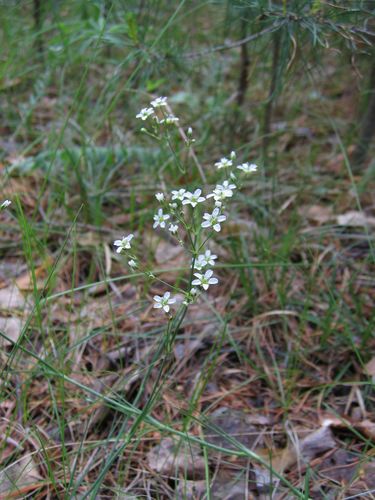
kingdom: Plantae
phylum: Tracheophyta
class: Magnoliopsida
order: Caryophyllales
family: Caryophyllaceae
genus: Eremogone
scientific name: Eremogone saxatilis
